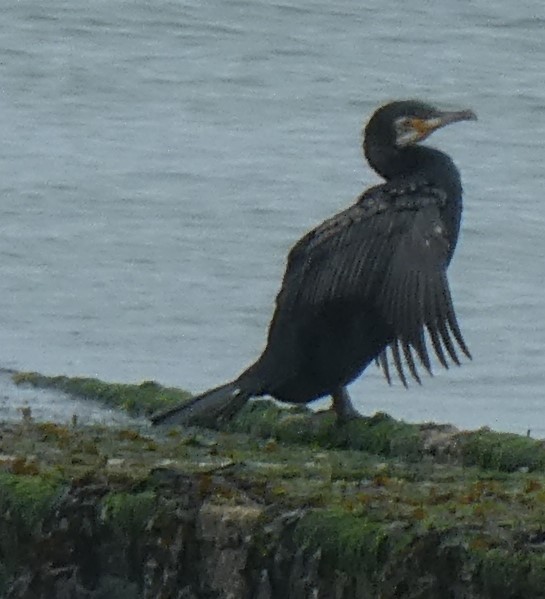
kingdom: Animalia
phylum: Chordata
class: Aves
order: Suliformes
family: Phalacrocoracidae
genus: Phalacrocorax
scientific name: Phalacrocorax carbo
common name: Great cormorant
